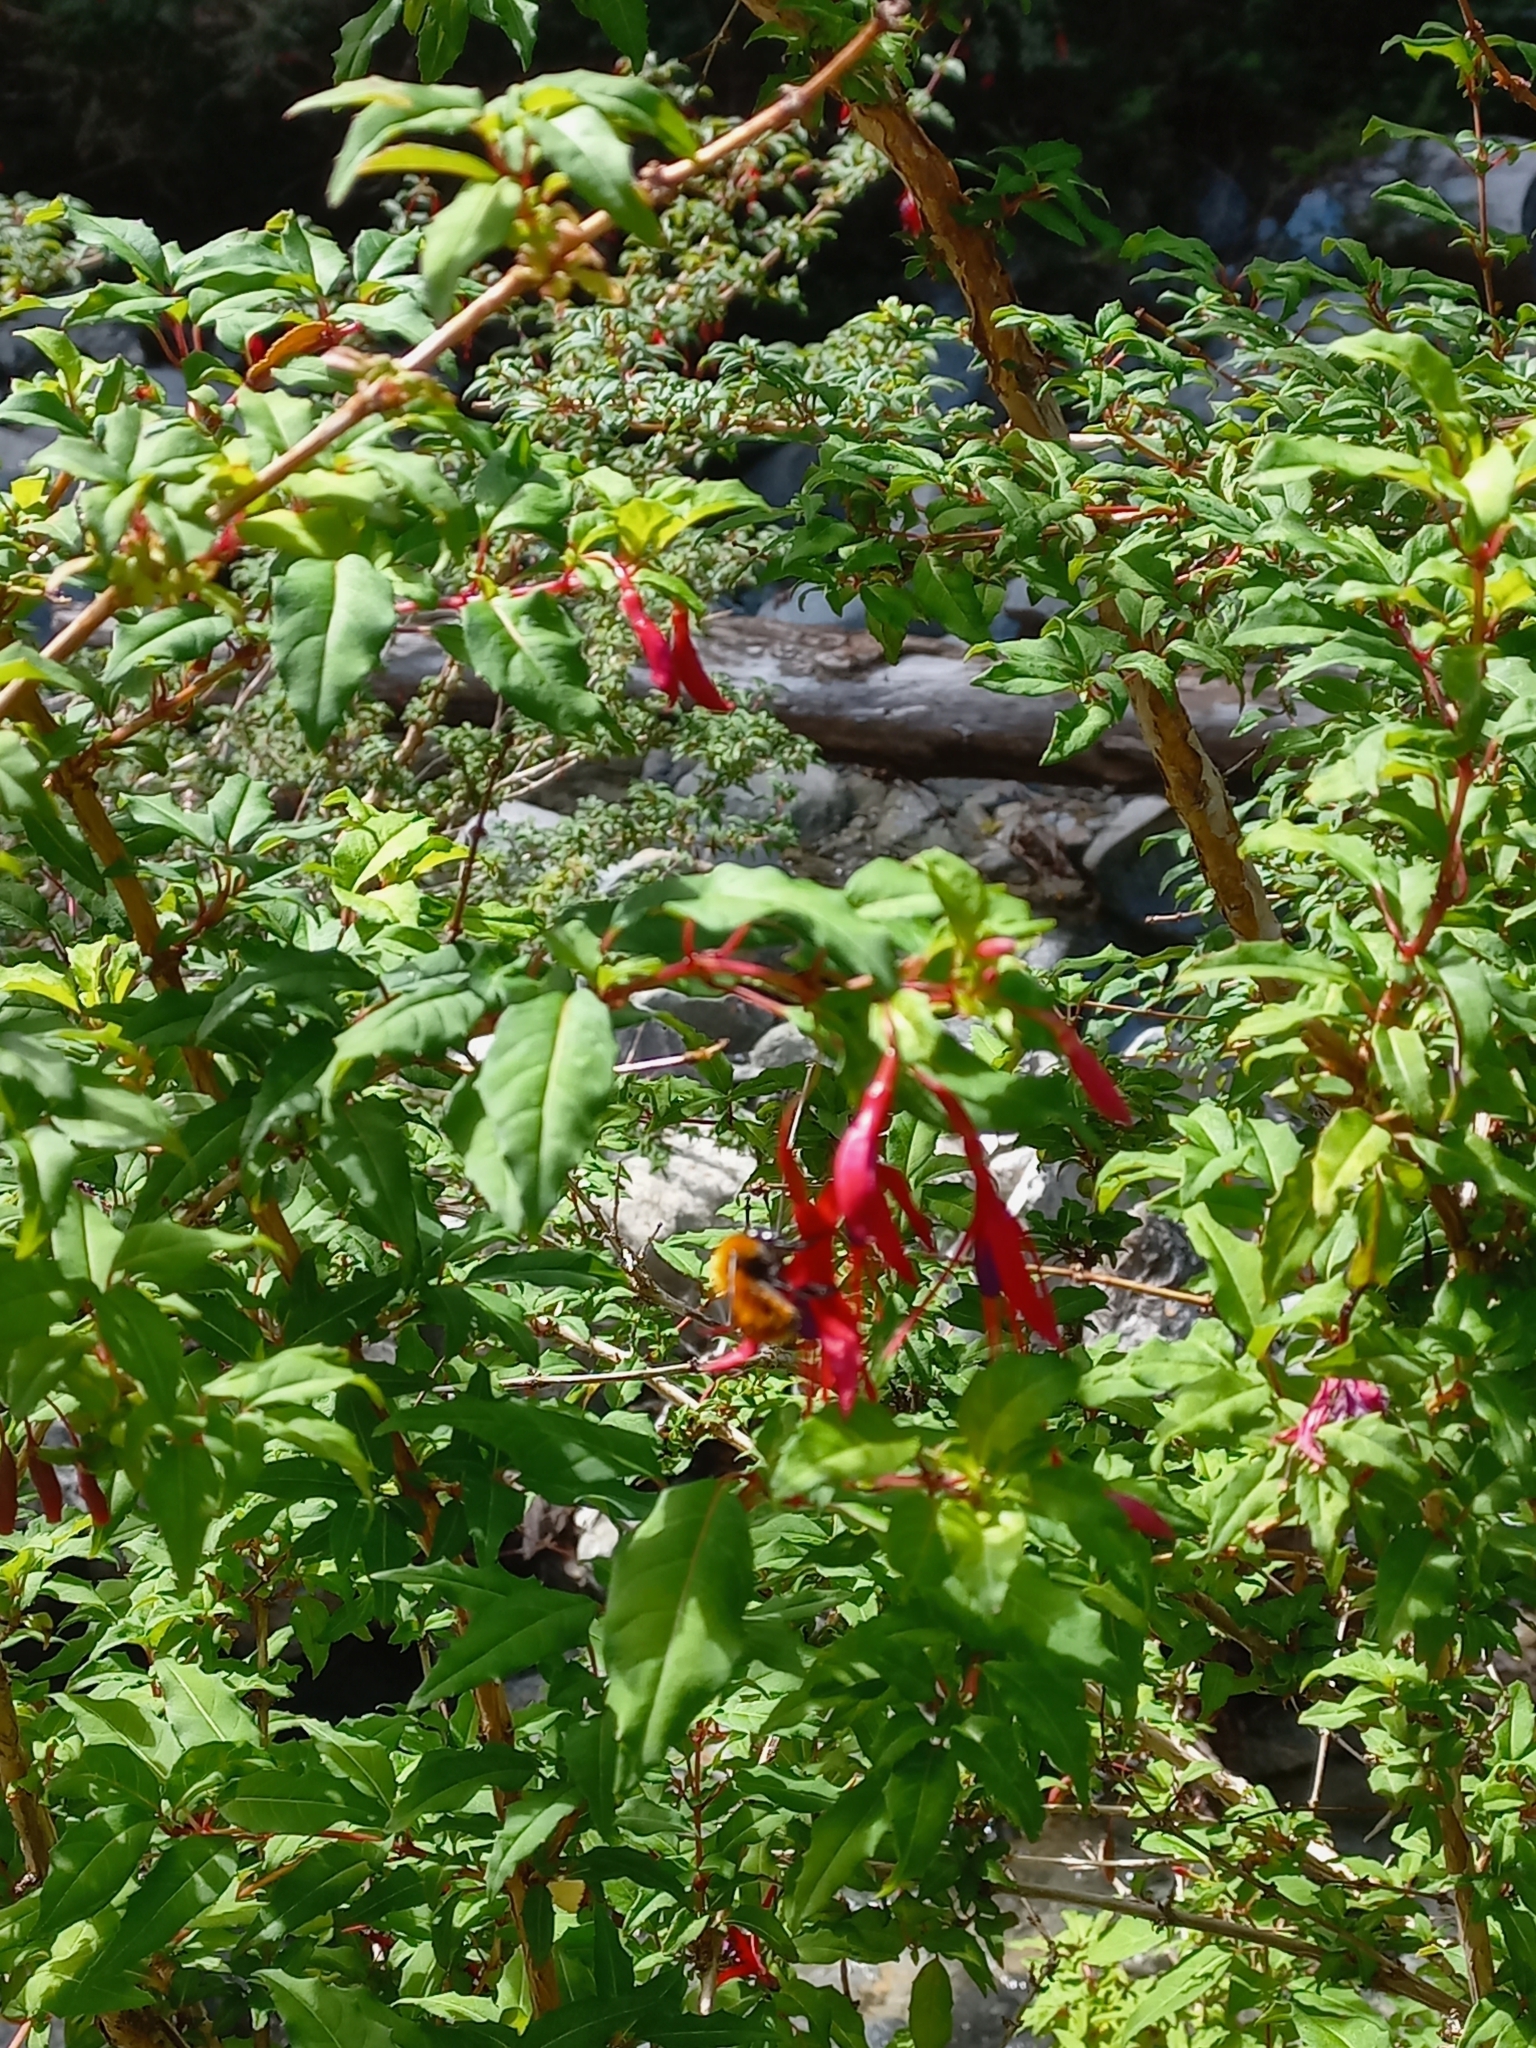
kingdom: Animalia
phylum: Arthropoda
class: Insecta
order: Hymenoptera
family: Apidae
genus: Bombus
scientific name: Bombus dahlbomii
